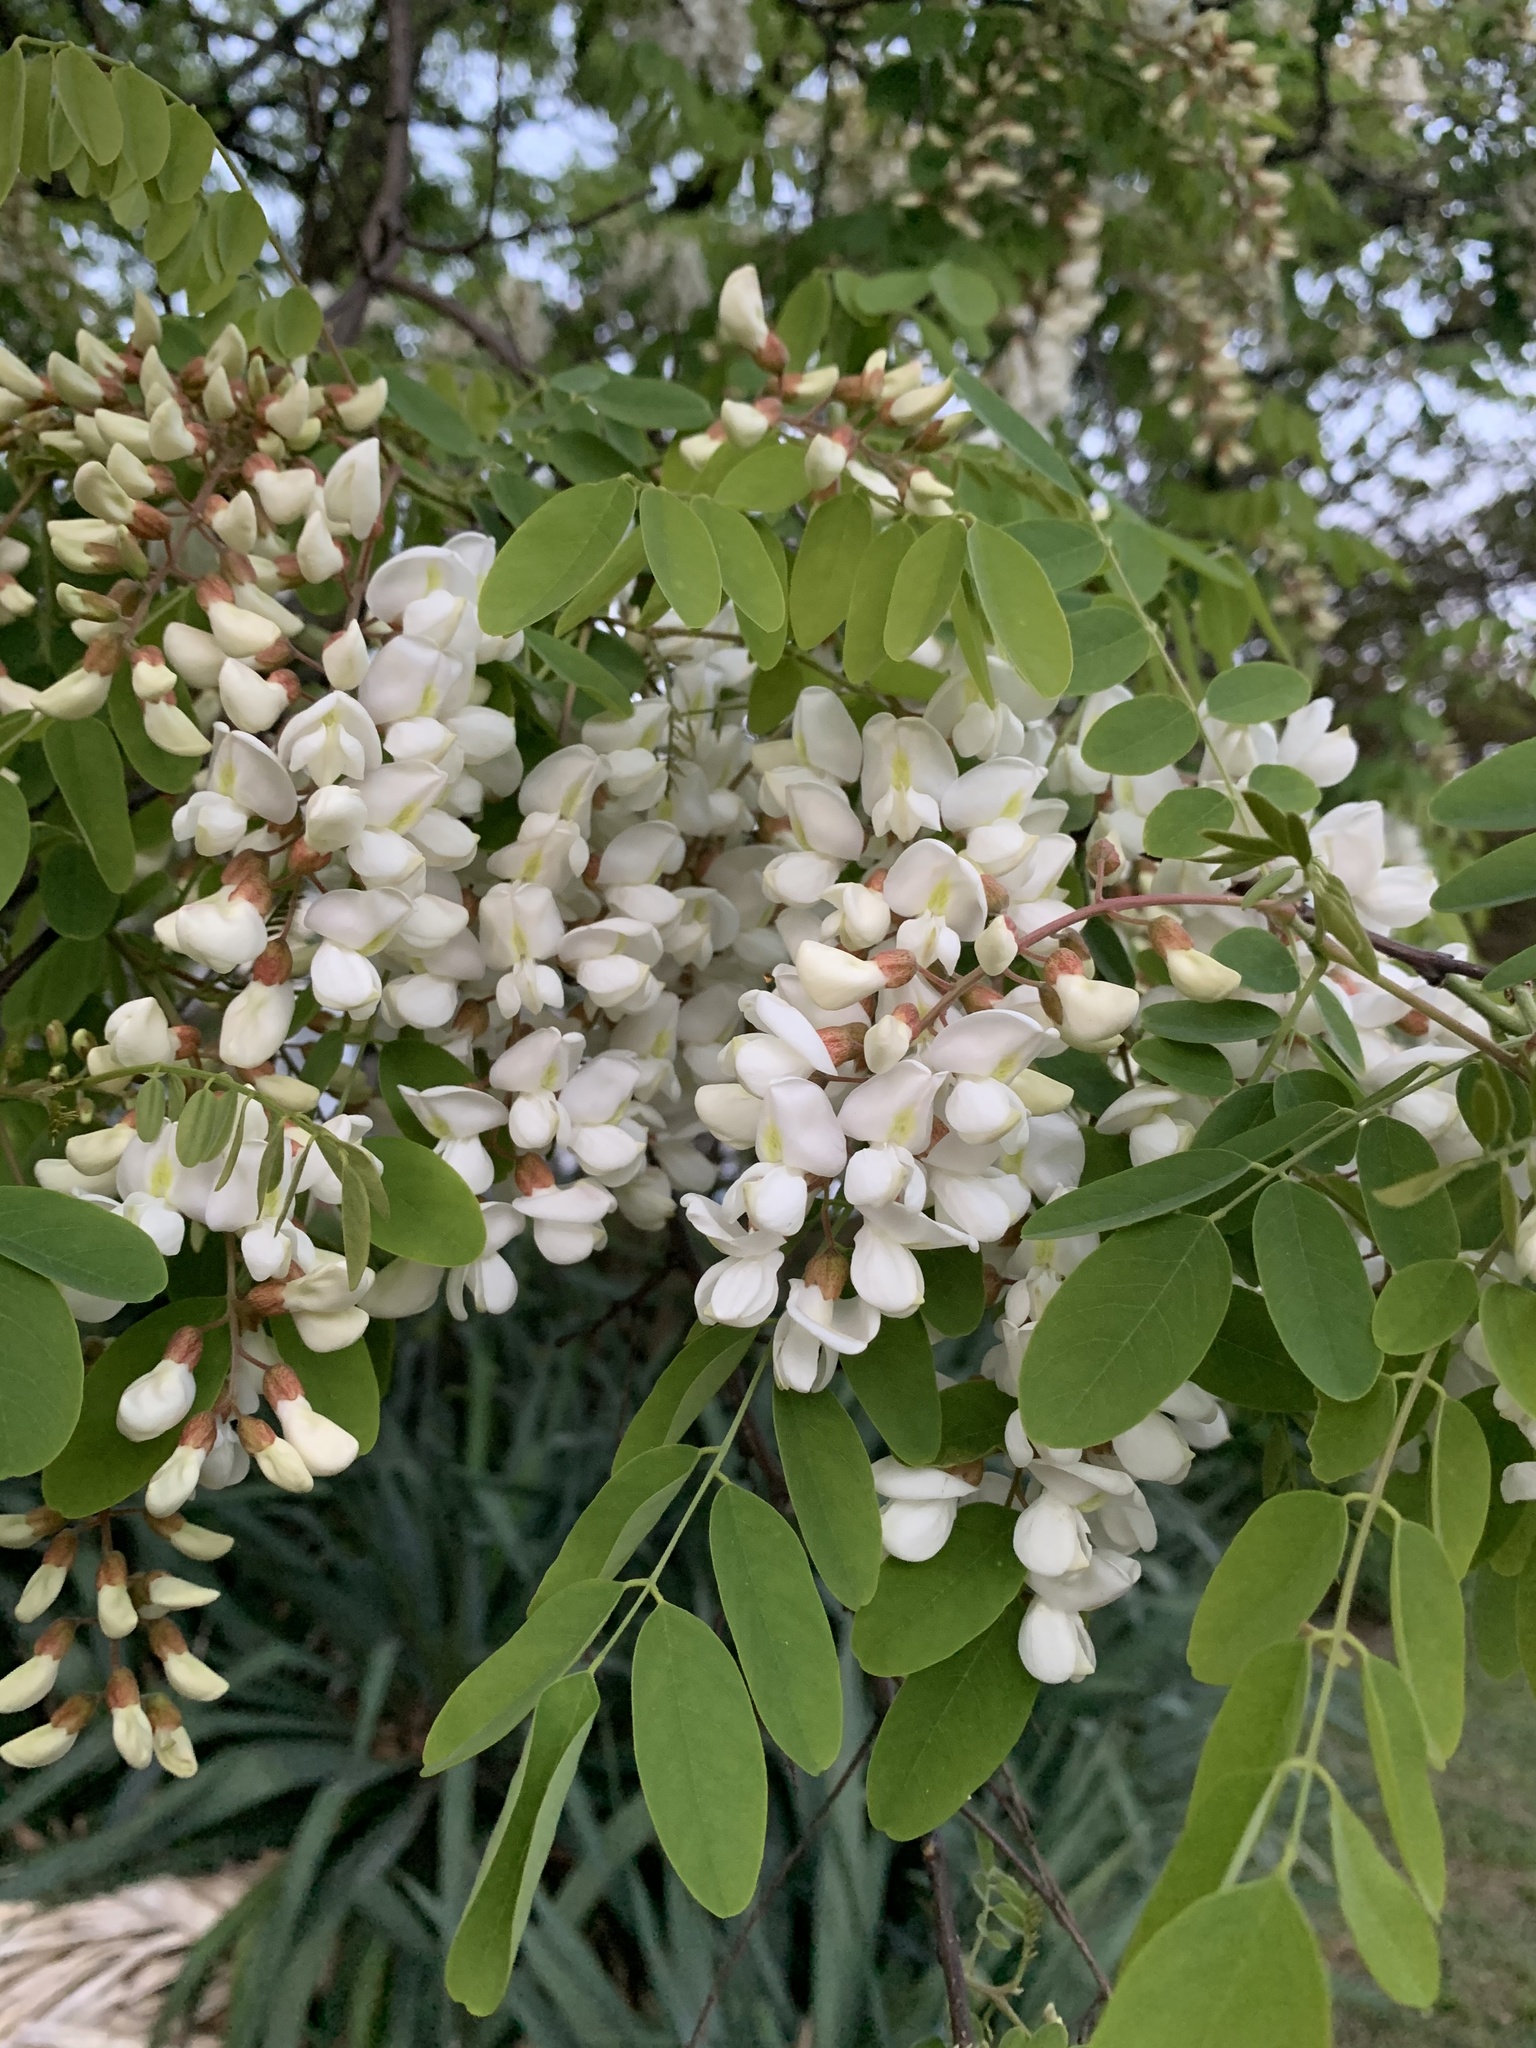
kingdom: Plantae
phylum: Tracheophyta
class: Magnoliopsida
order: Fabales
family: Fabaceae
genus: Robinia
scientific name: Robinia pseudoacacia
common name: Black locust
